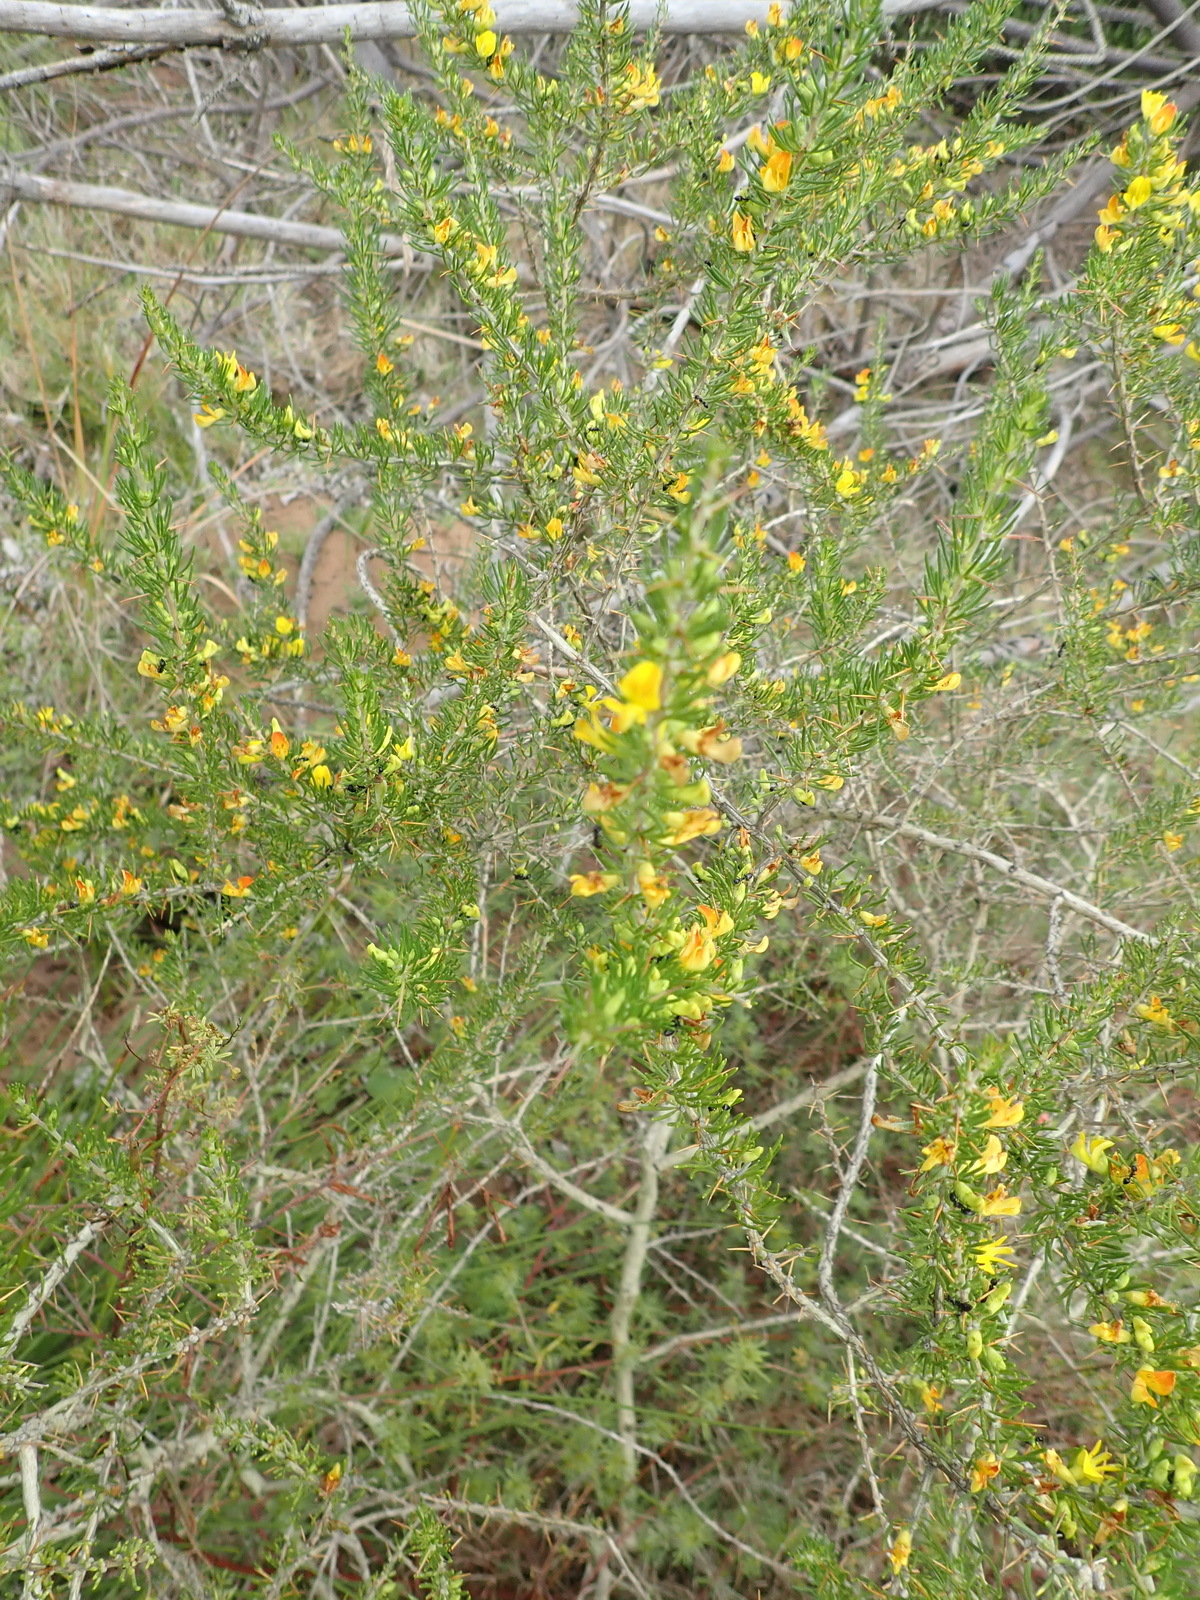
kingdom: Plantae
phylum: Tracheophyta
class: Magnoliopsida
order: Fabales
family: Fabaceae
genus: Aspalathus
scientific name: Aspalathus spinosa
